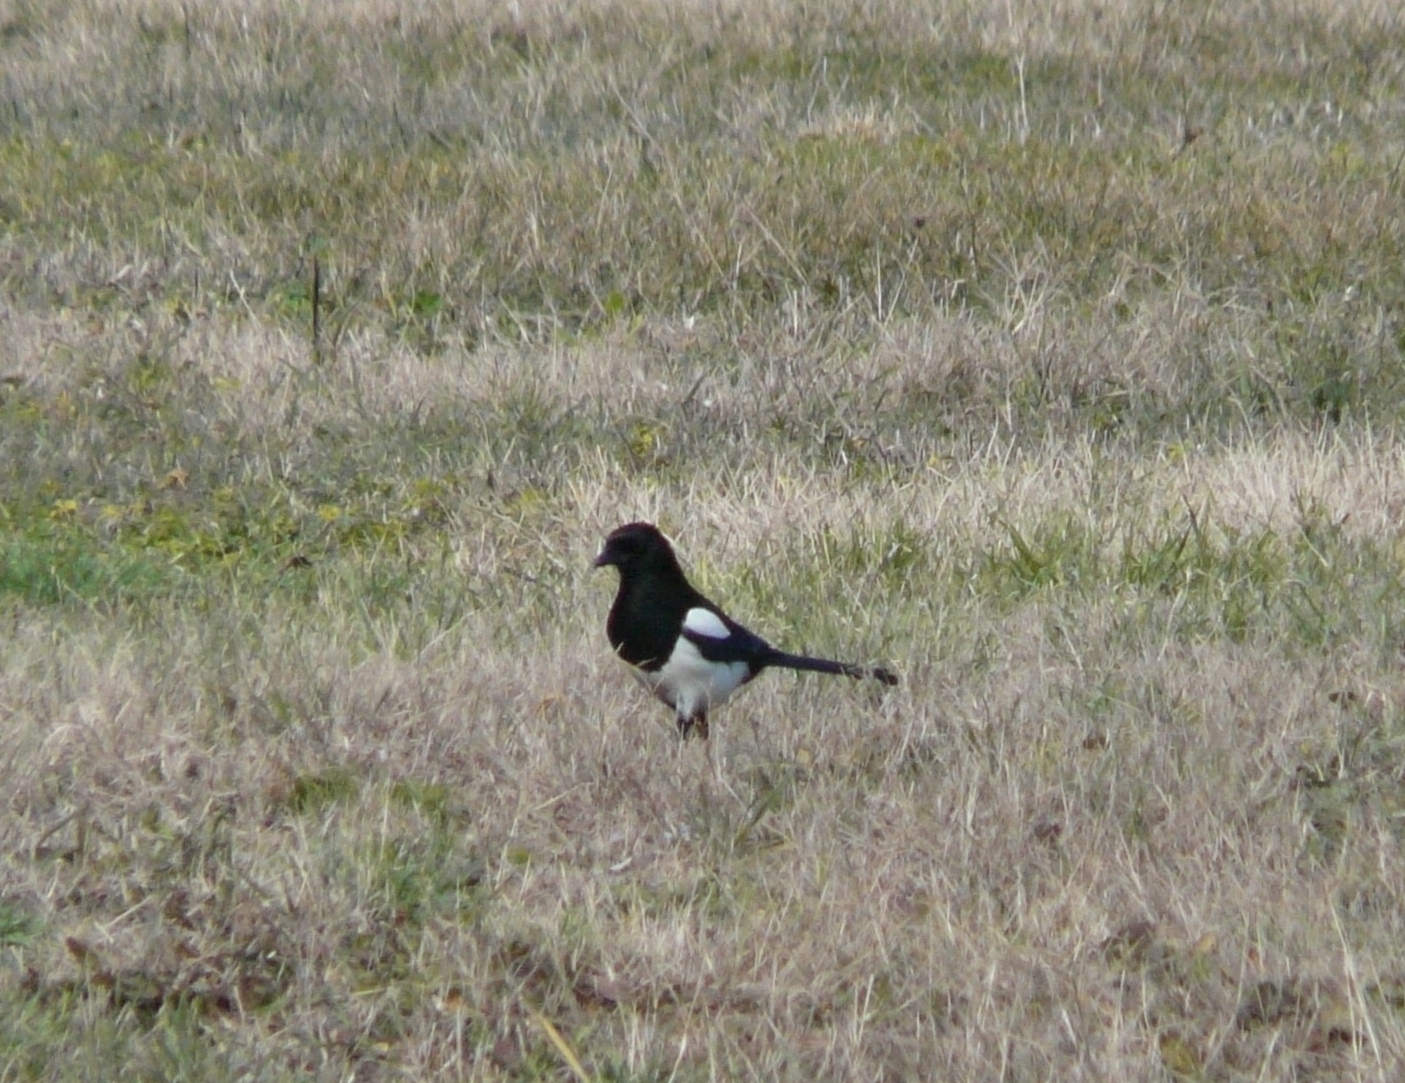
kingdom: Animalia
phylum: Chordata
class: Aves
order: Passeriformes
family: Corvidae
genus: Pica
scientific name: Pica pica
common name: Eurasian magpie
